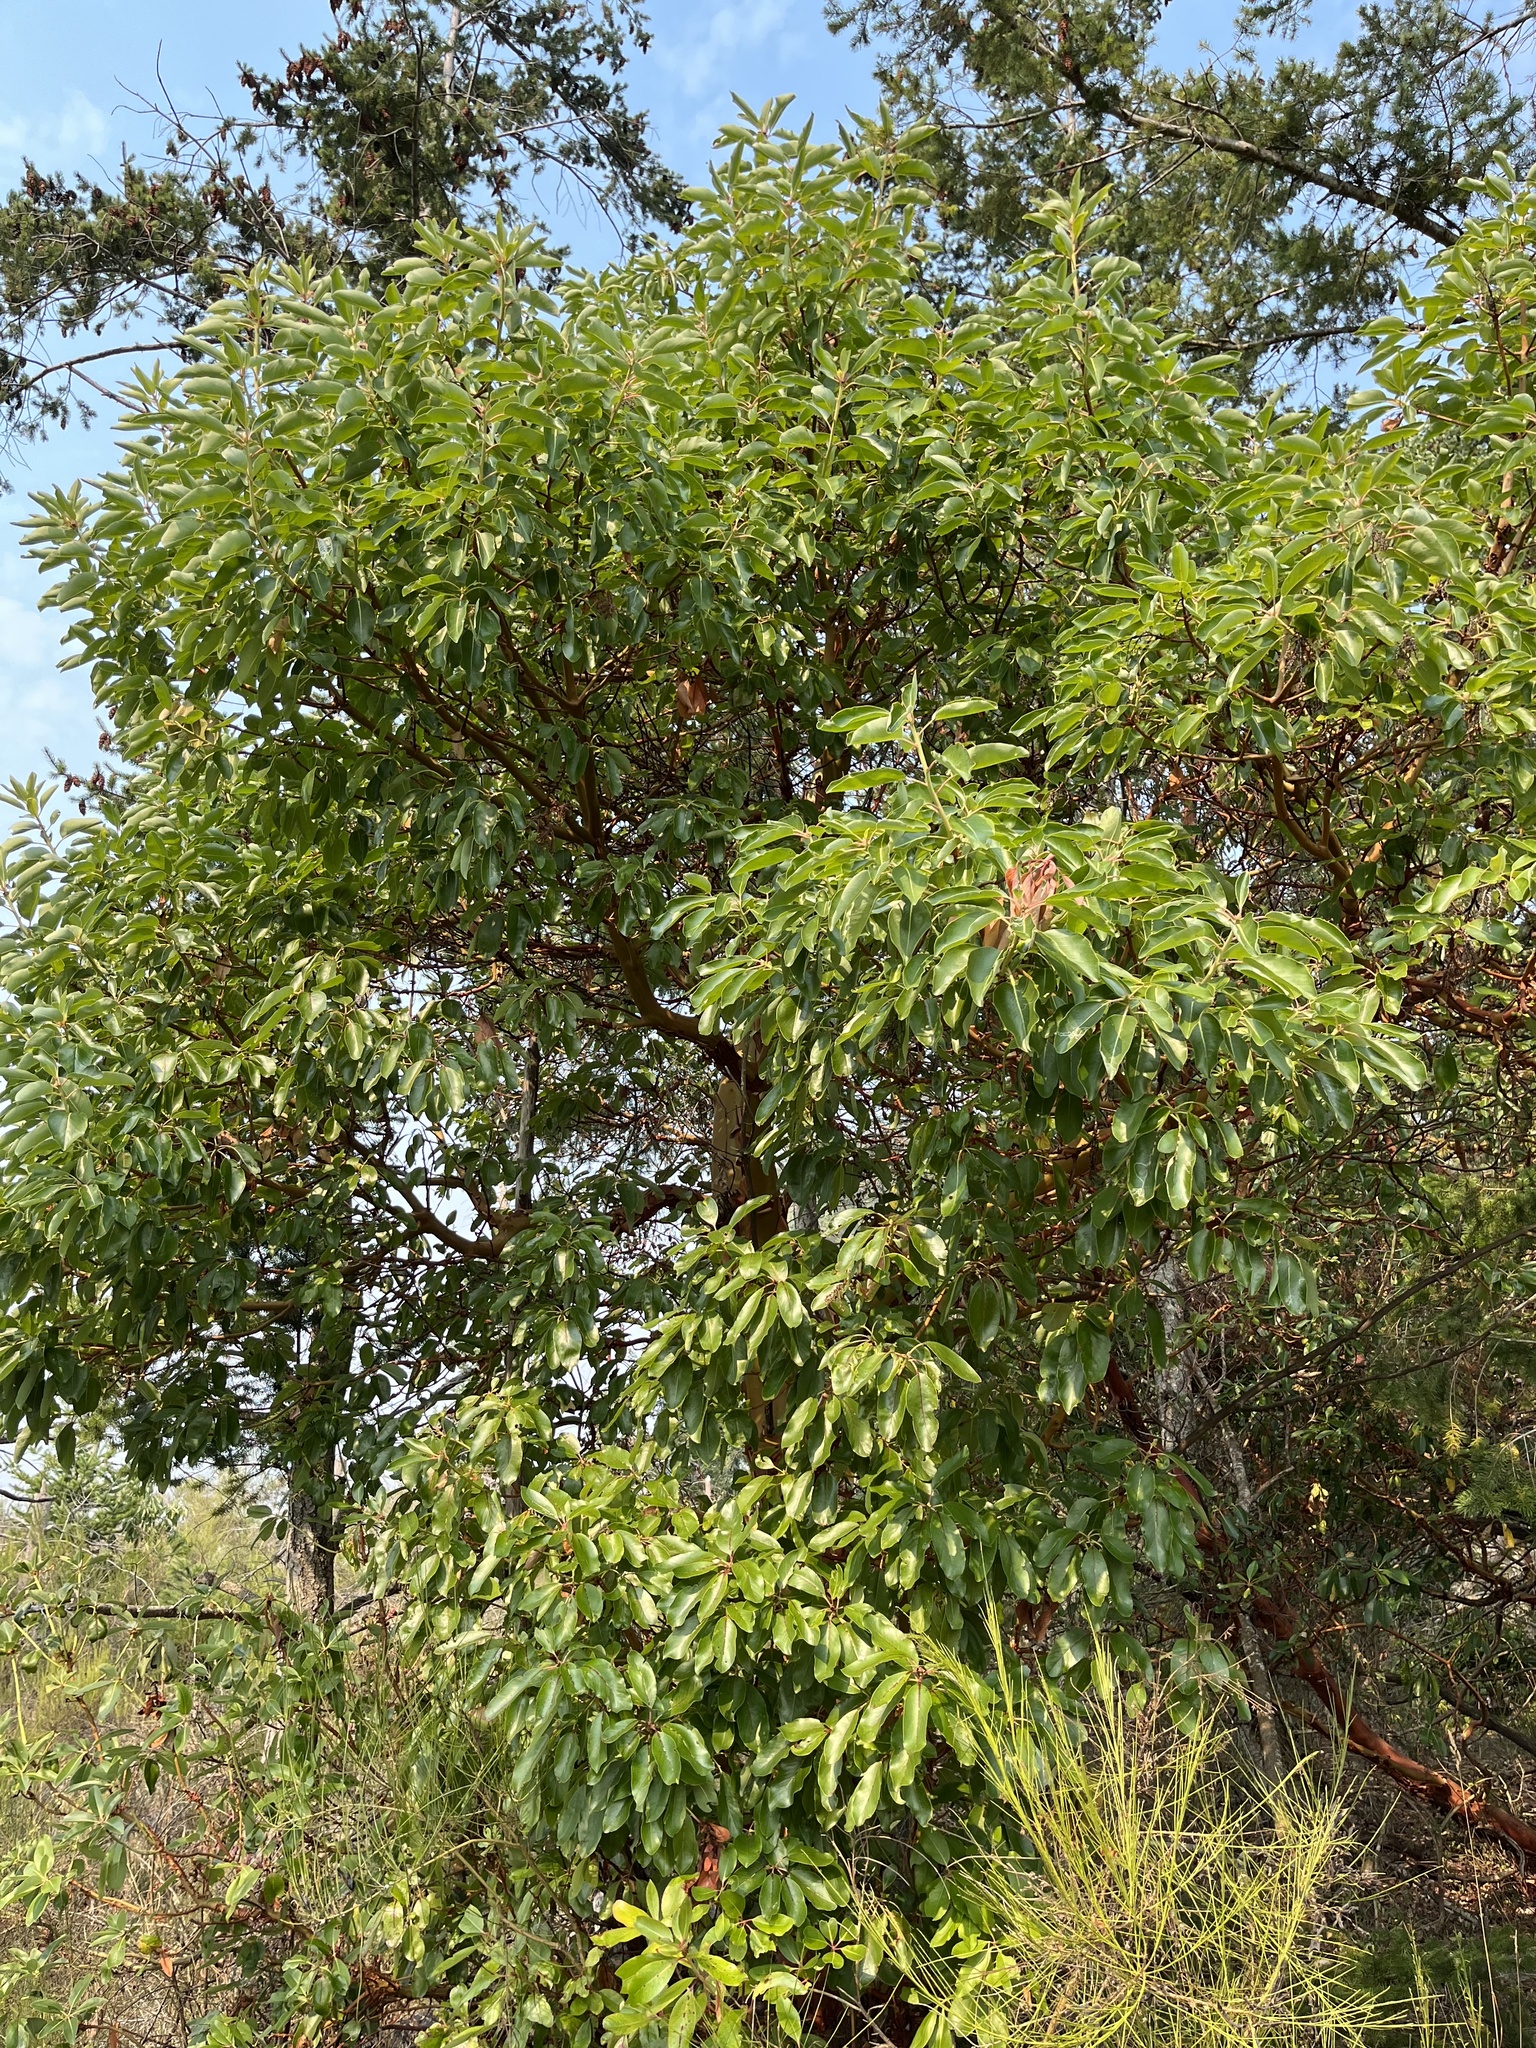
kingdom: Plantae
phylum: Tracheophyta
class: Magnoliopsida
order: Ericales
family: Ericaceae
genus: Arbutus
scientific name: Arbutus menziesii
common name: Pacific madrone
